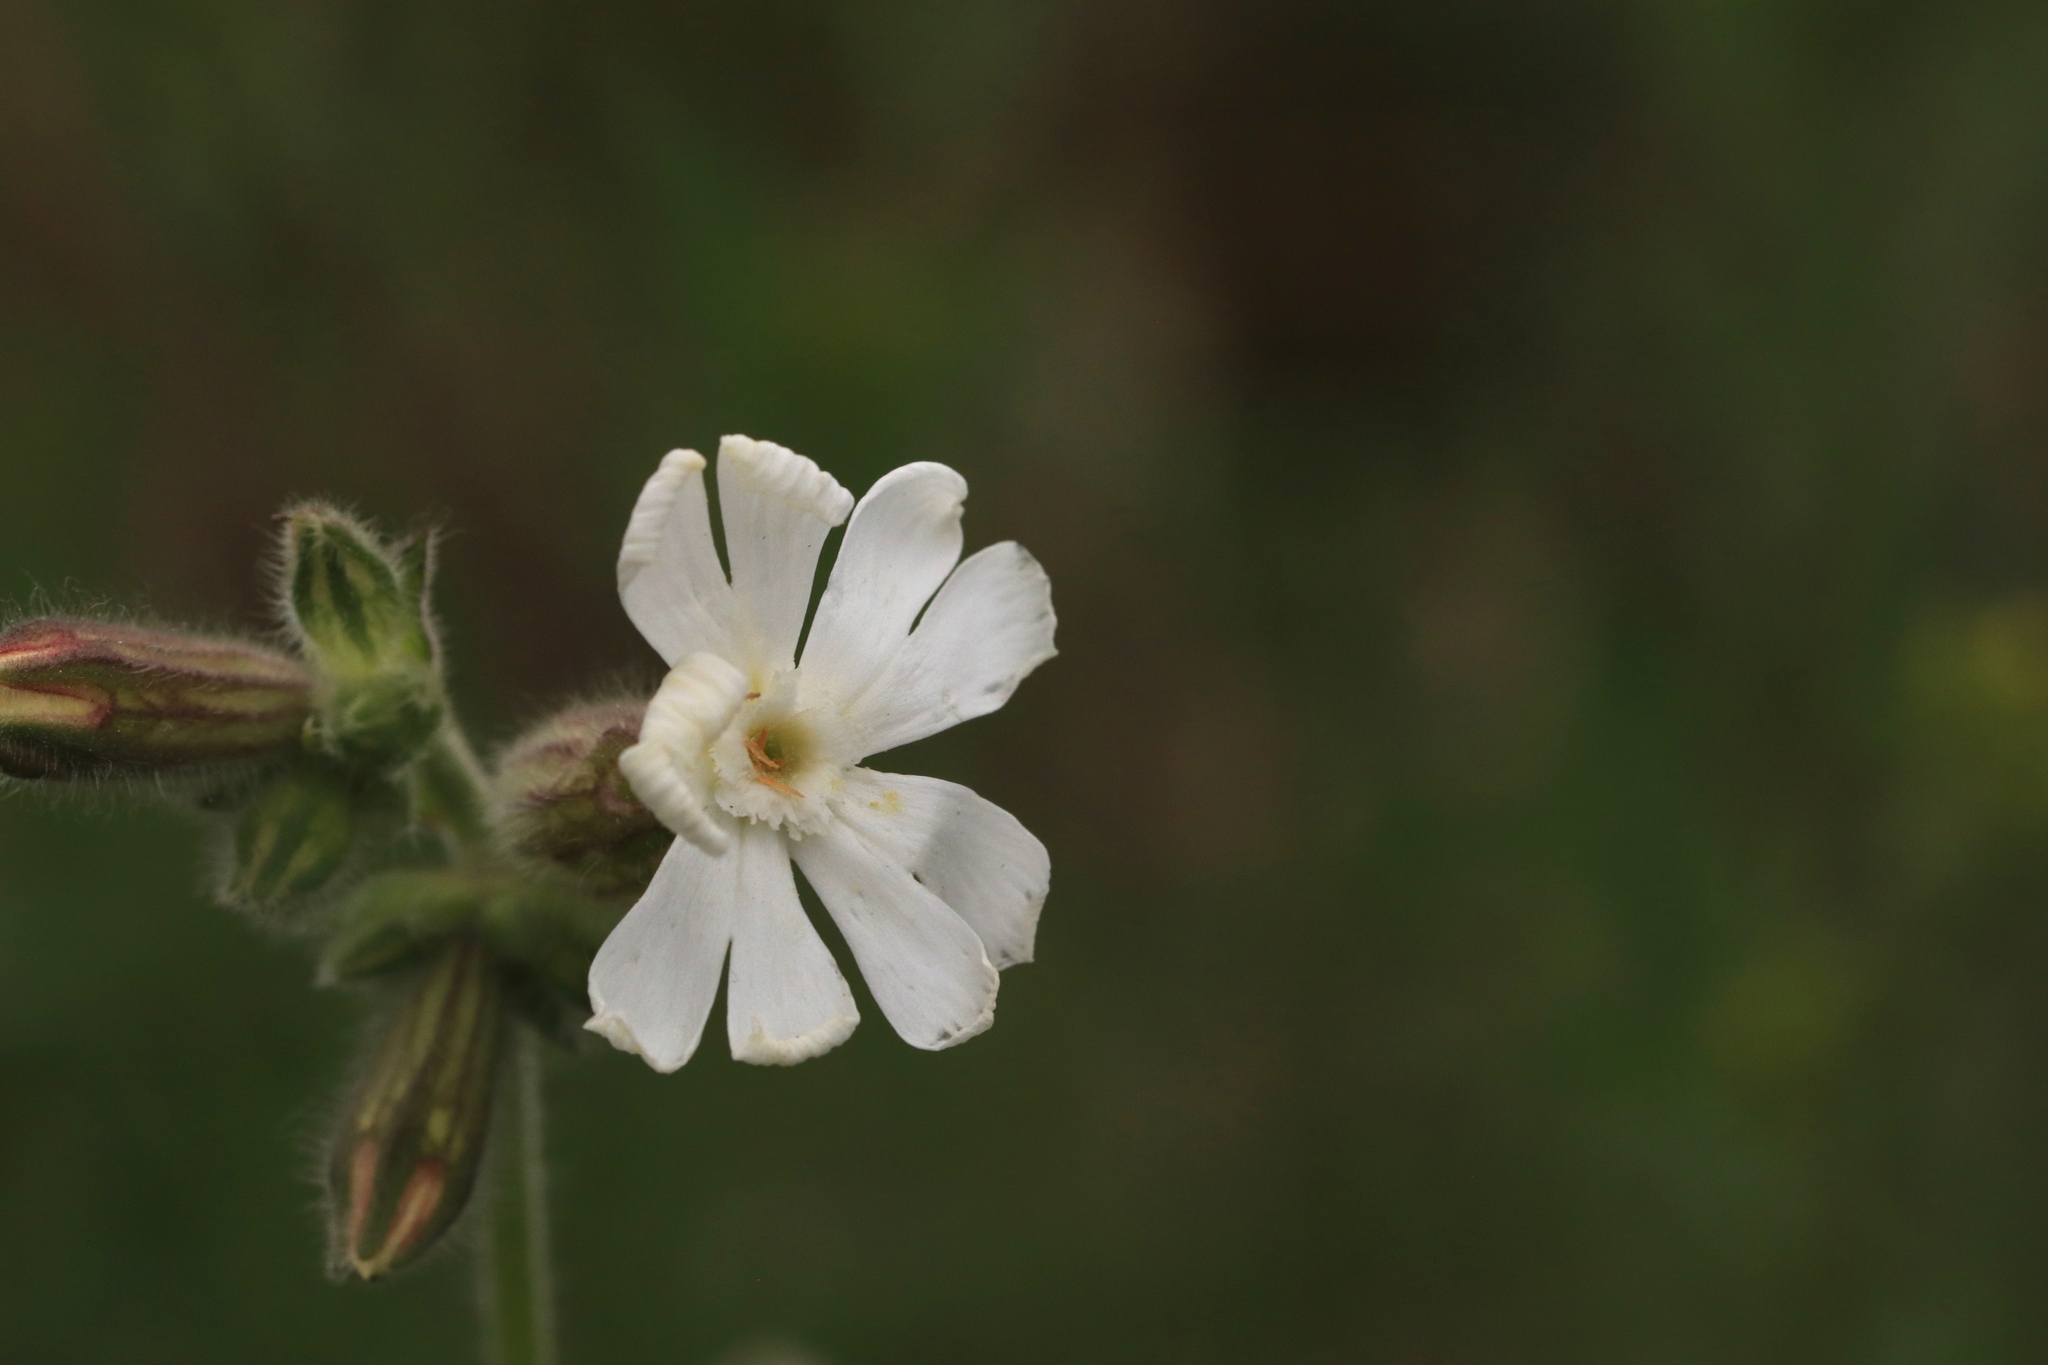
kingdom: Plantae
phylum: Tracheophyta
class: Magnoliopsida
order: Caryophyllales
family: Caryophyllaceae
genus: Silene
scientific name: Silene latifolia
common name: White campion
